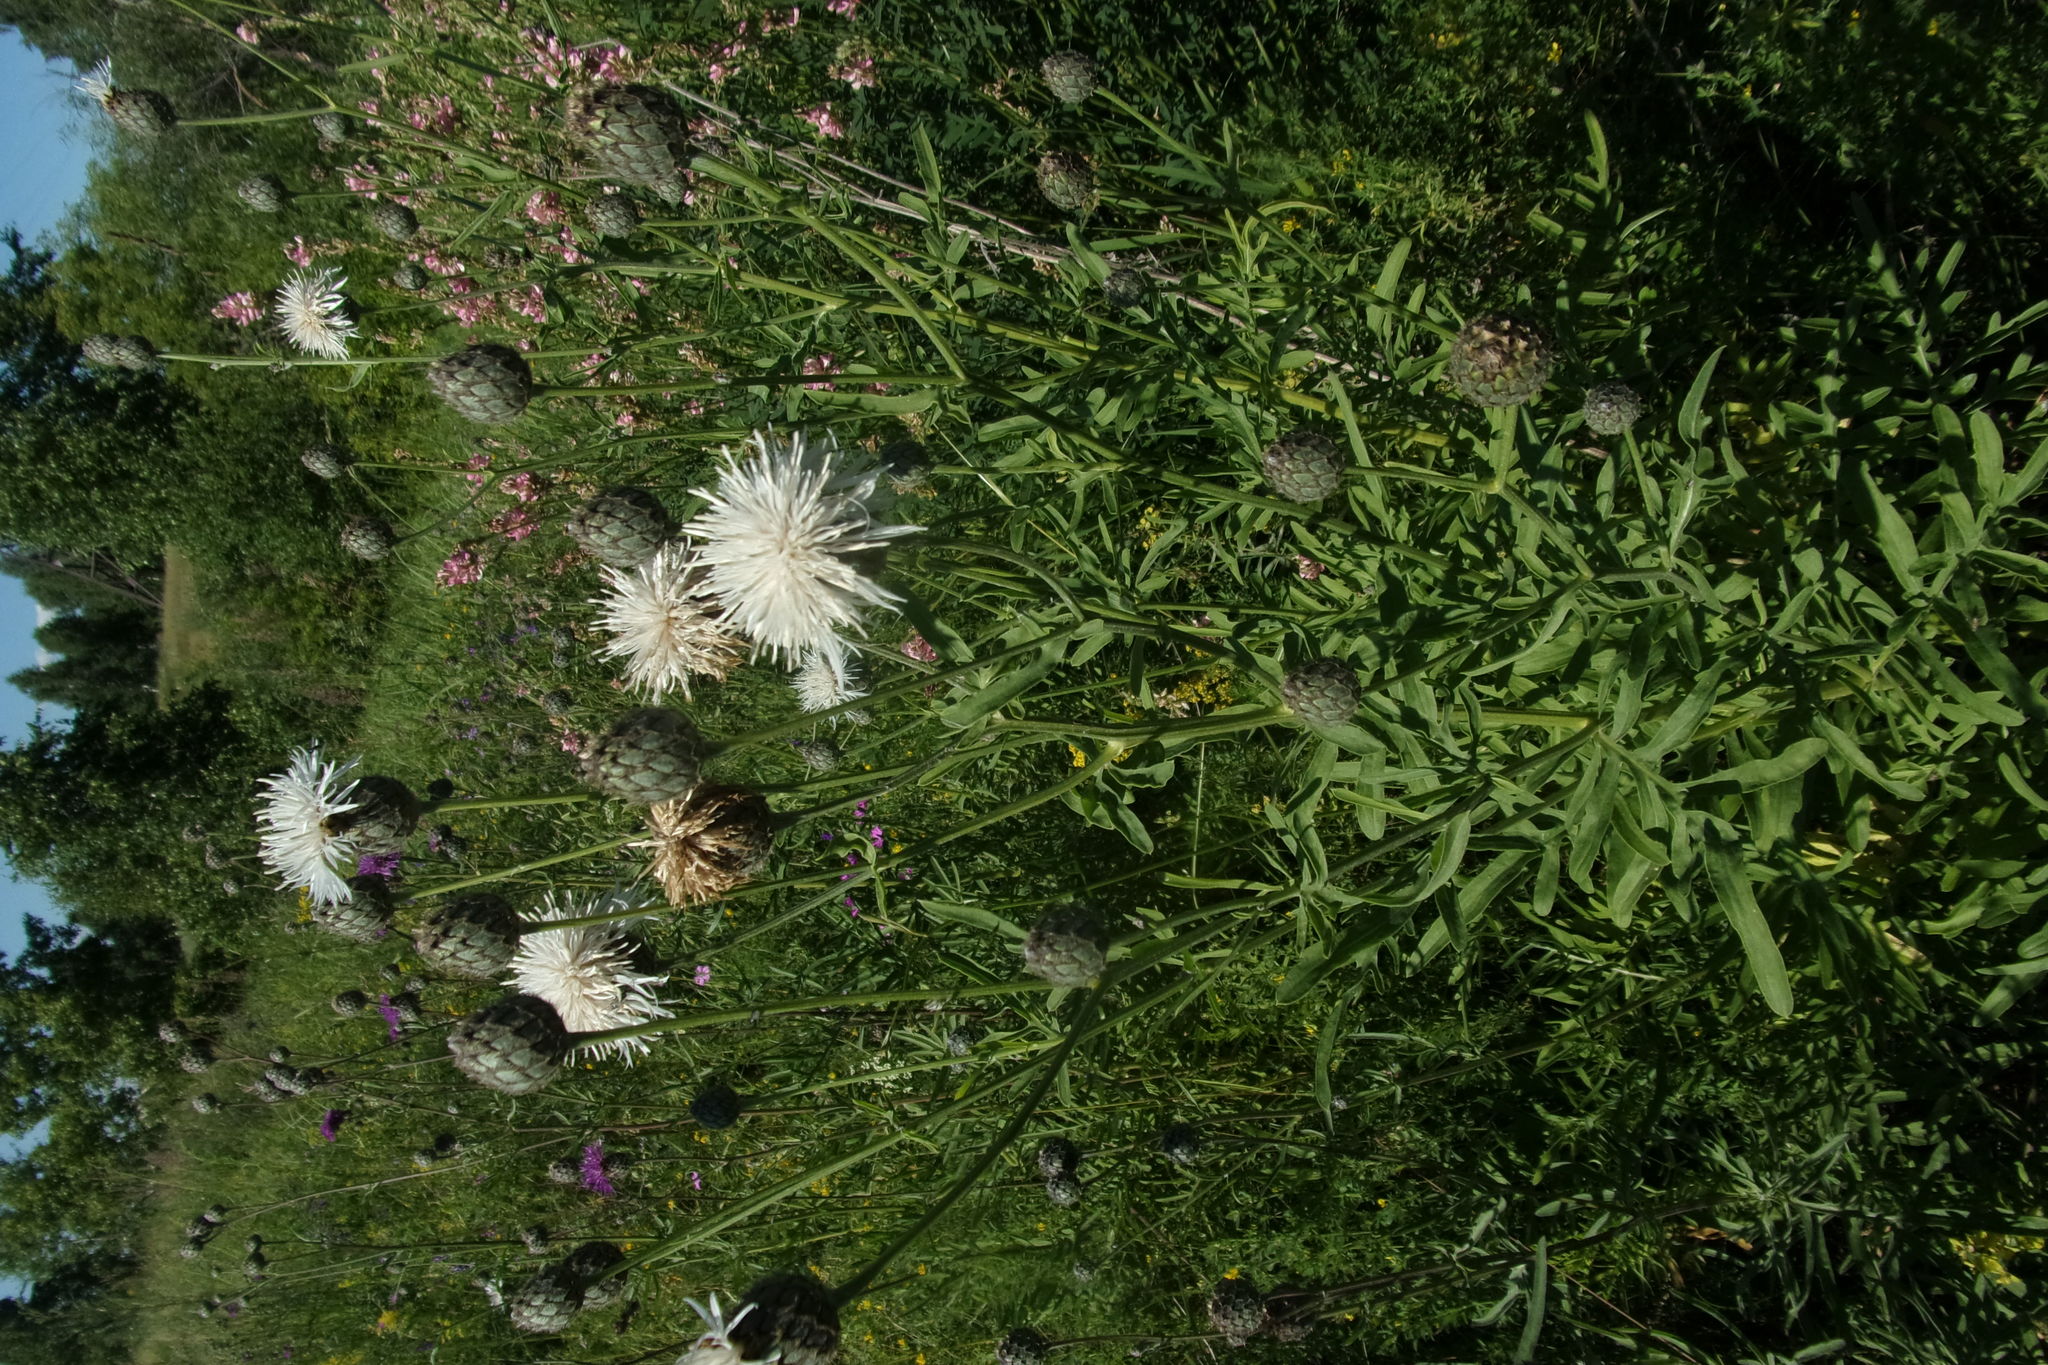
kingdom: Plantae
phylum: Tracheophyta
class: Magnoliopsida
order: Asterales
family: Asteraceae
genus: Centaurea
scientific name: Centaurea scabiosa
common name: Greater knapweed
